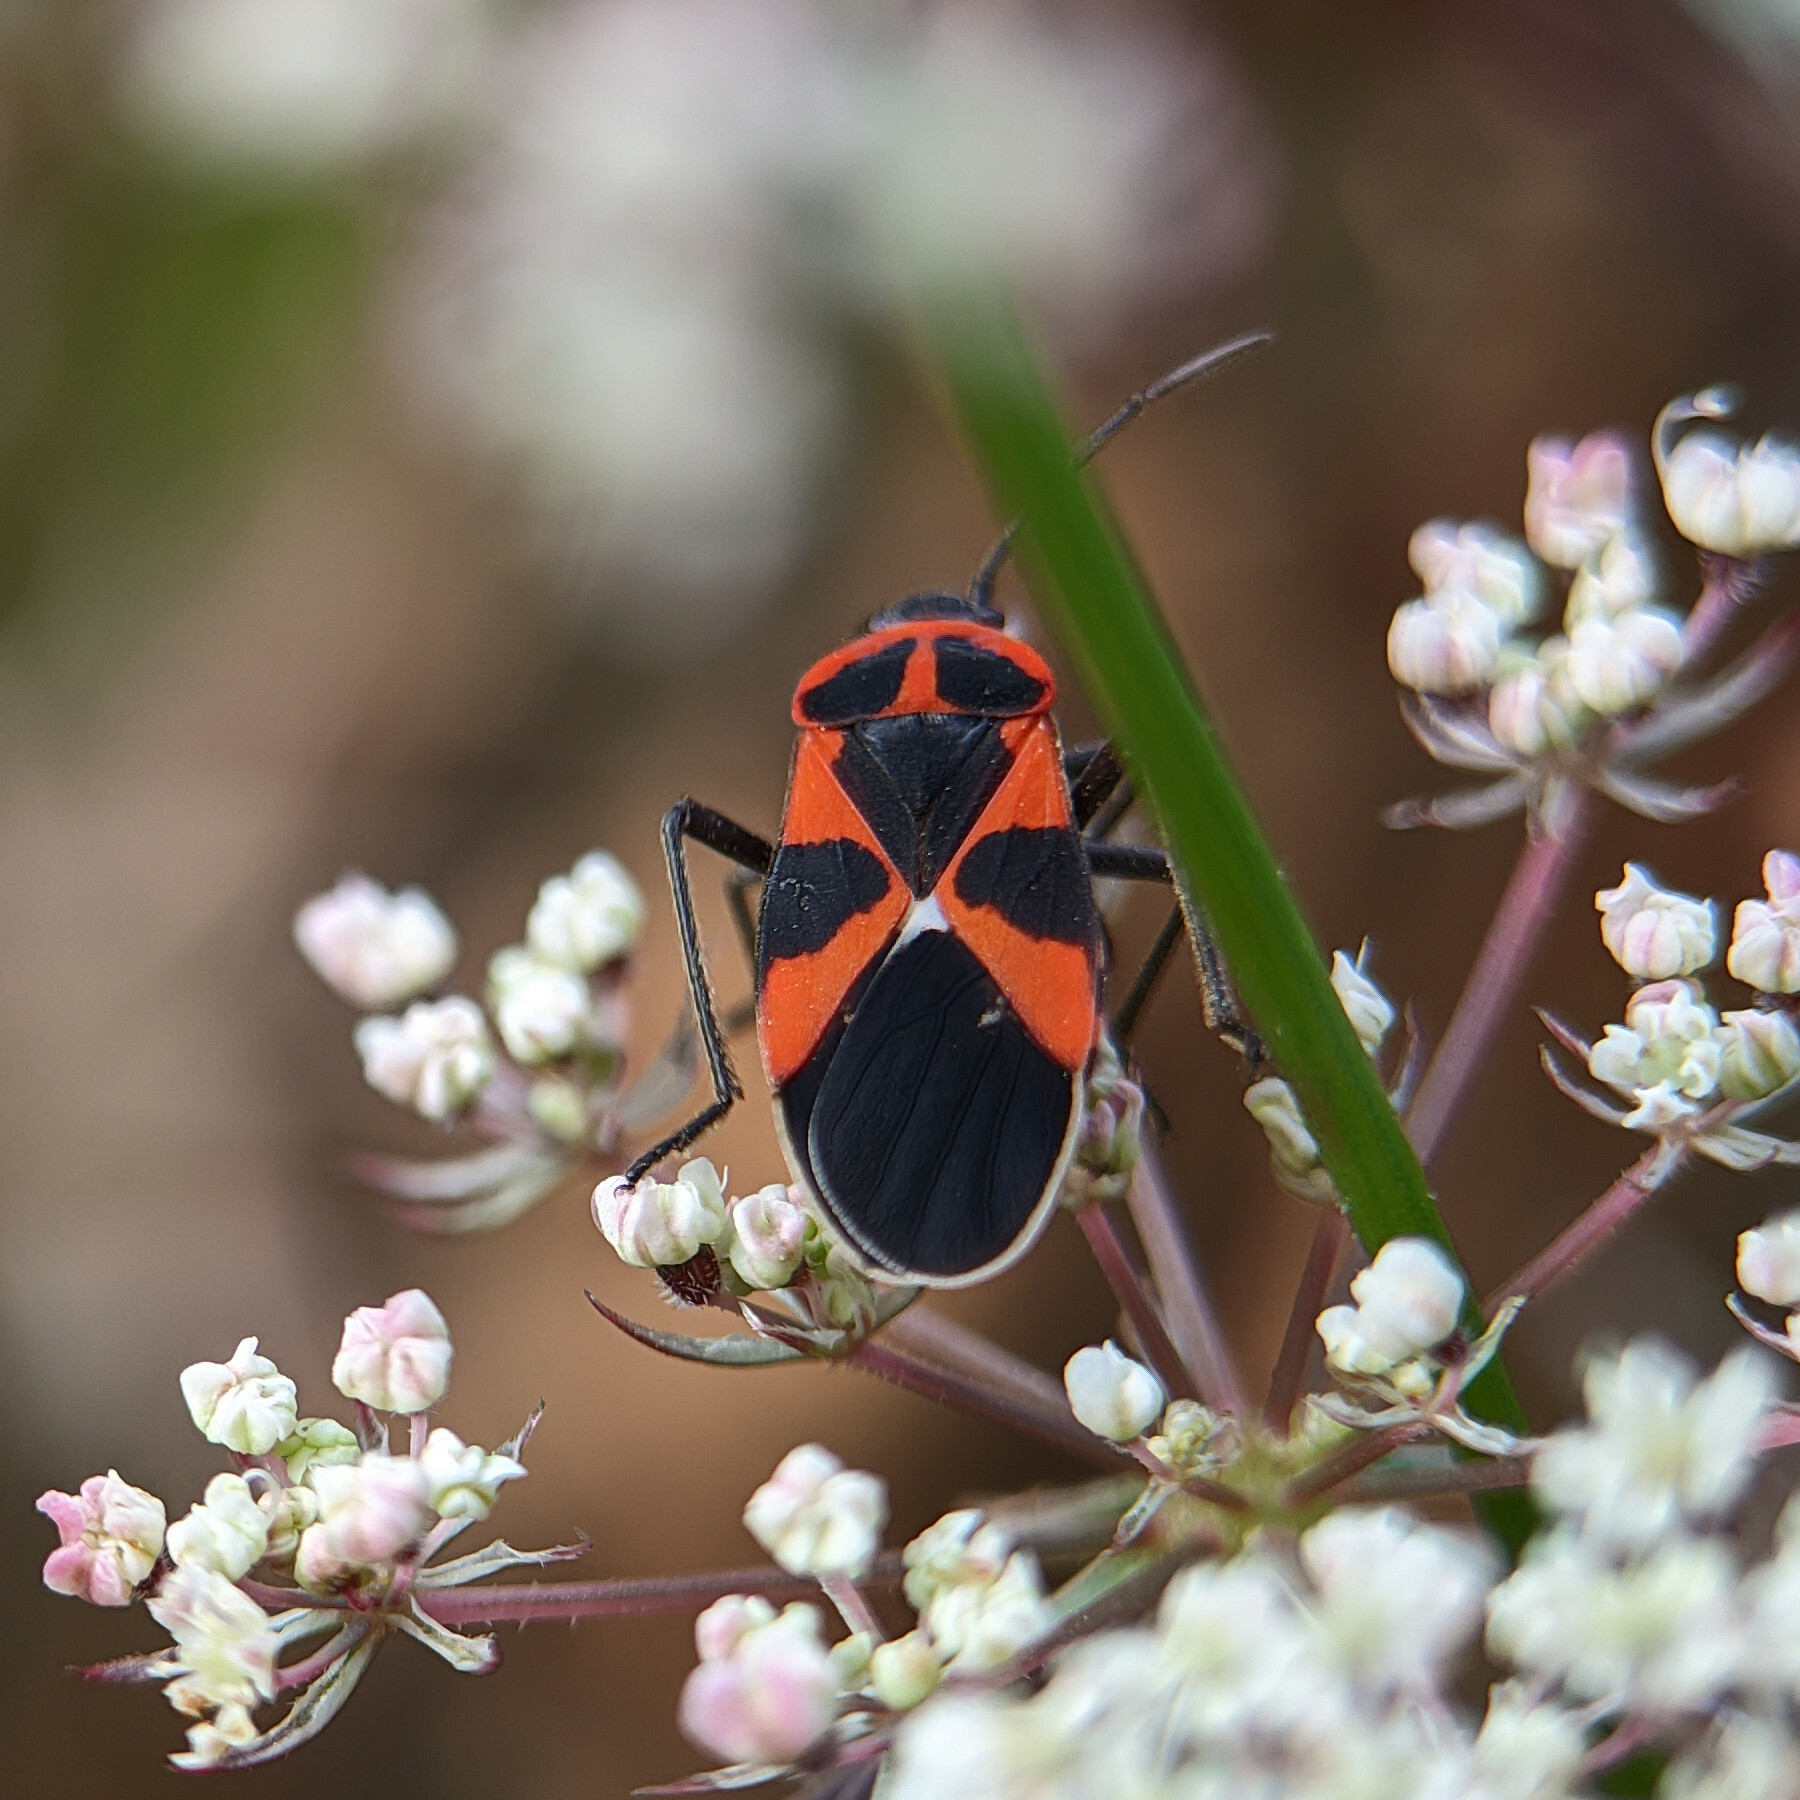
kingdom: Animalia
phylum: Arthropoda
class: Insecta
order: Hemiptera
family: Lygaeidae
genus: Tropidothorax
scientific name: Tropidothorax leucopterus
